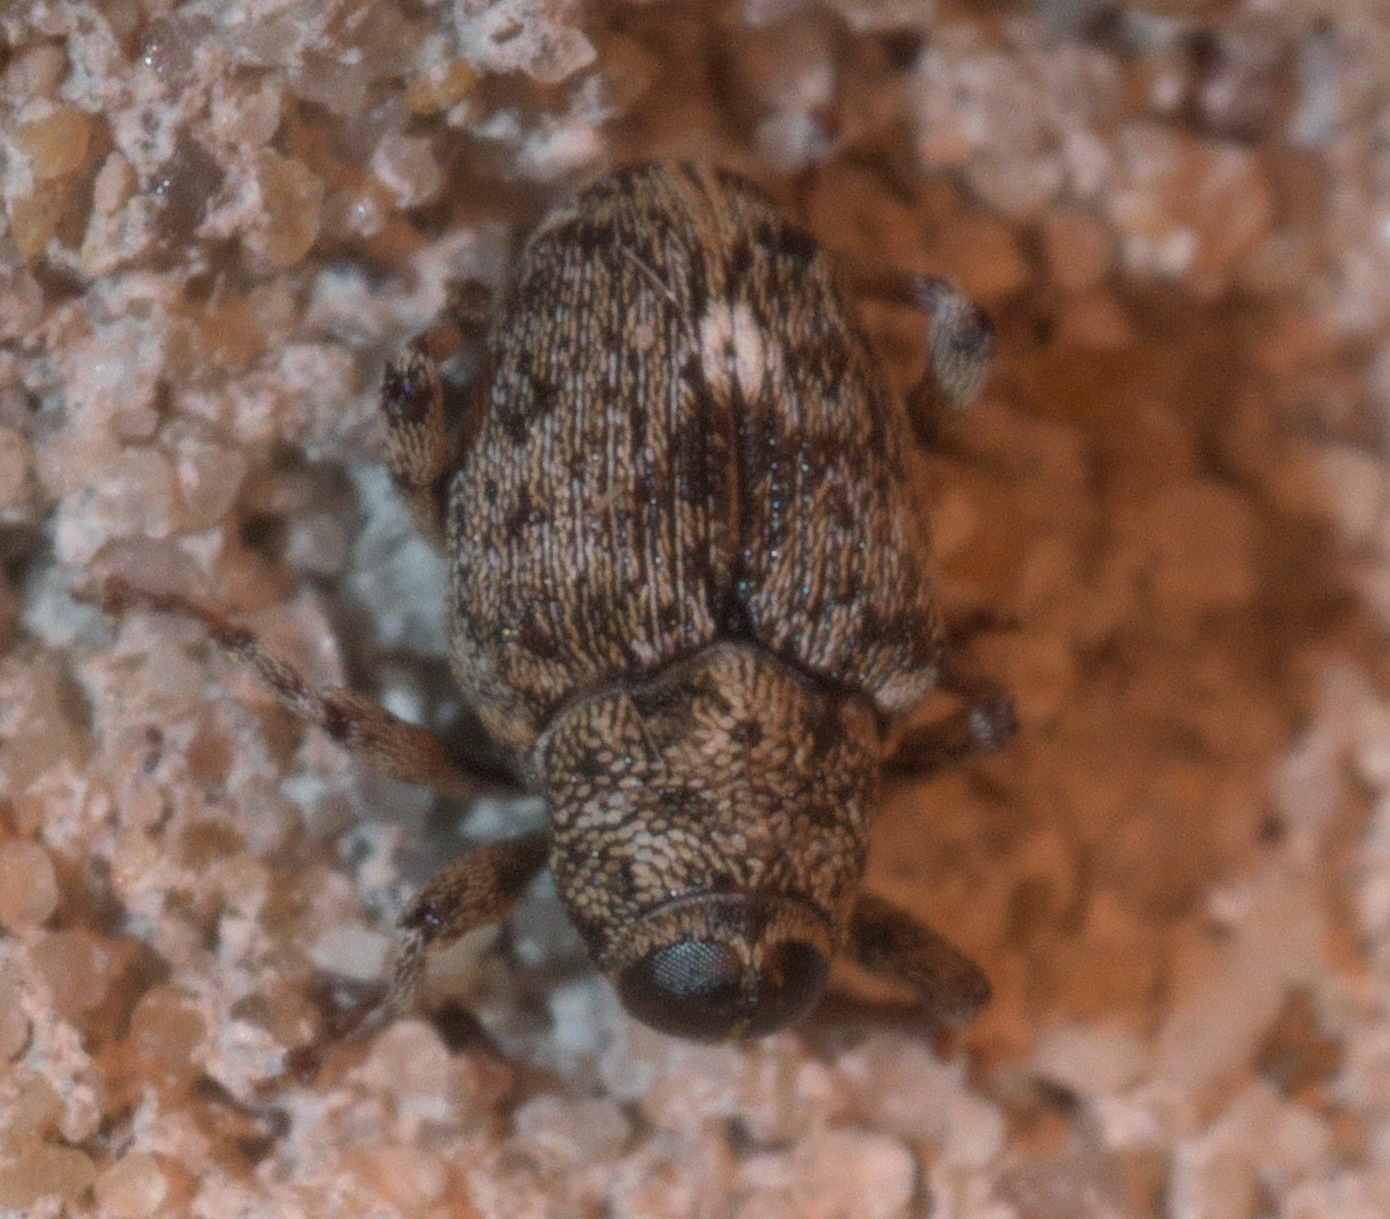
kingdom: Animalia
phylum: Arthropoda
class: Insecta
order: Coleoptera
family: Curculionidae
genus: Lechriops
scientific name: Lechriops oculatus
